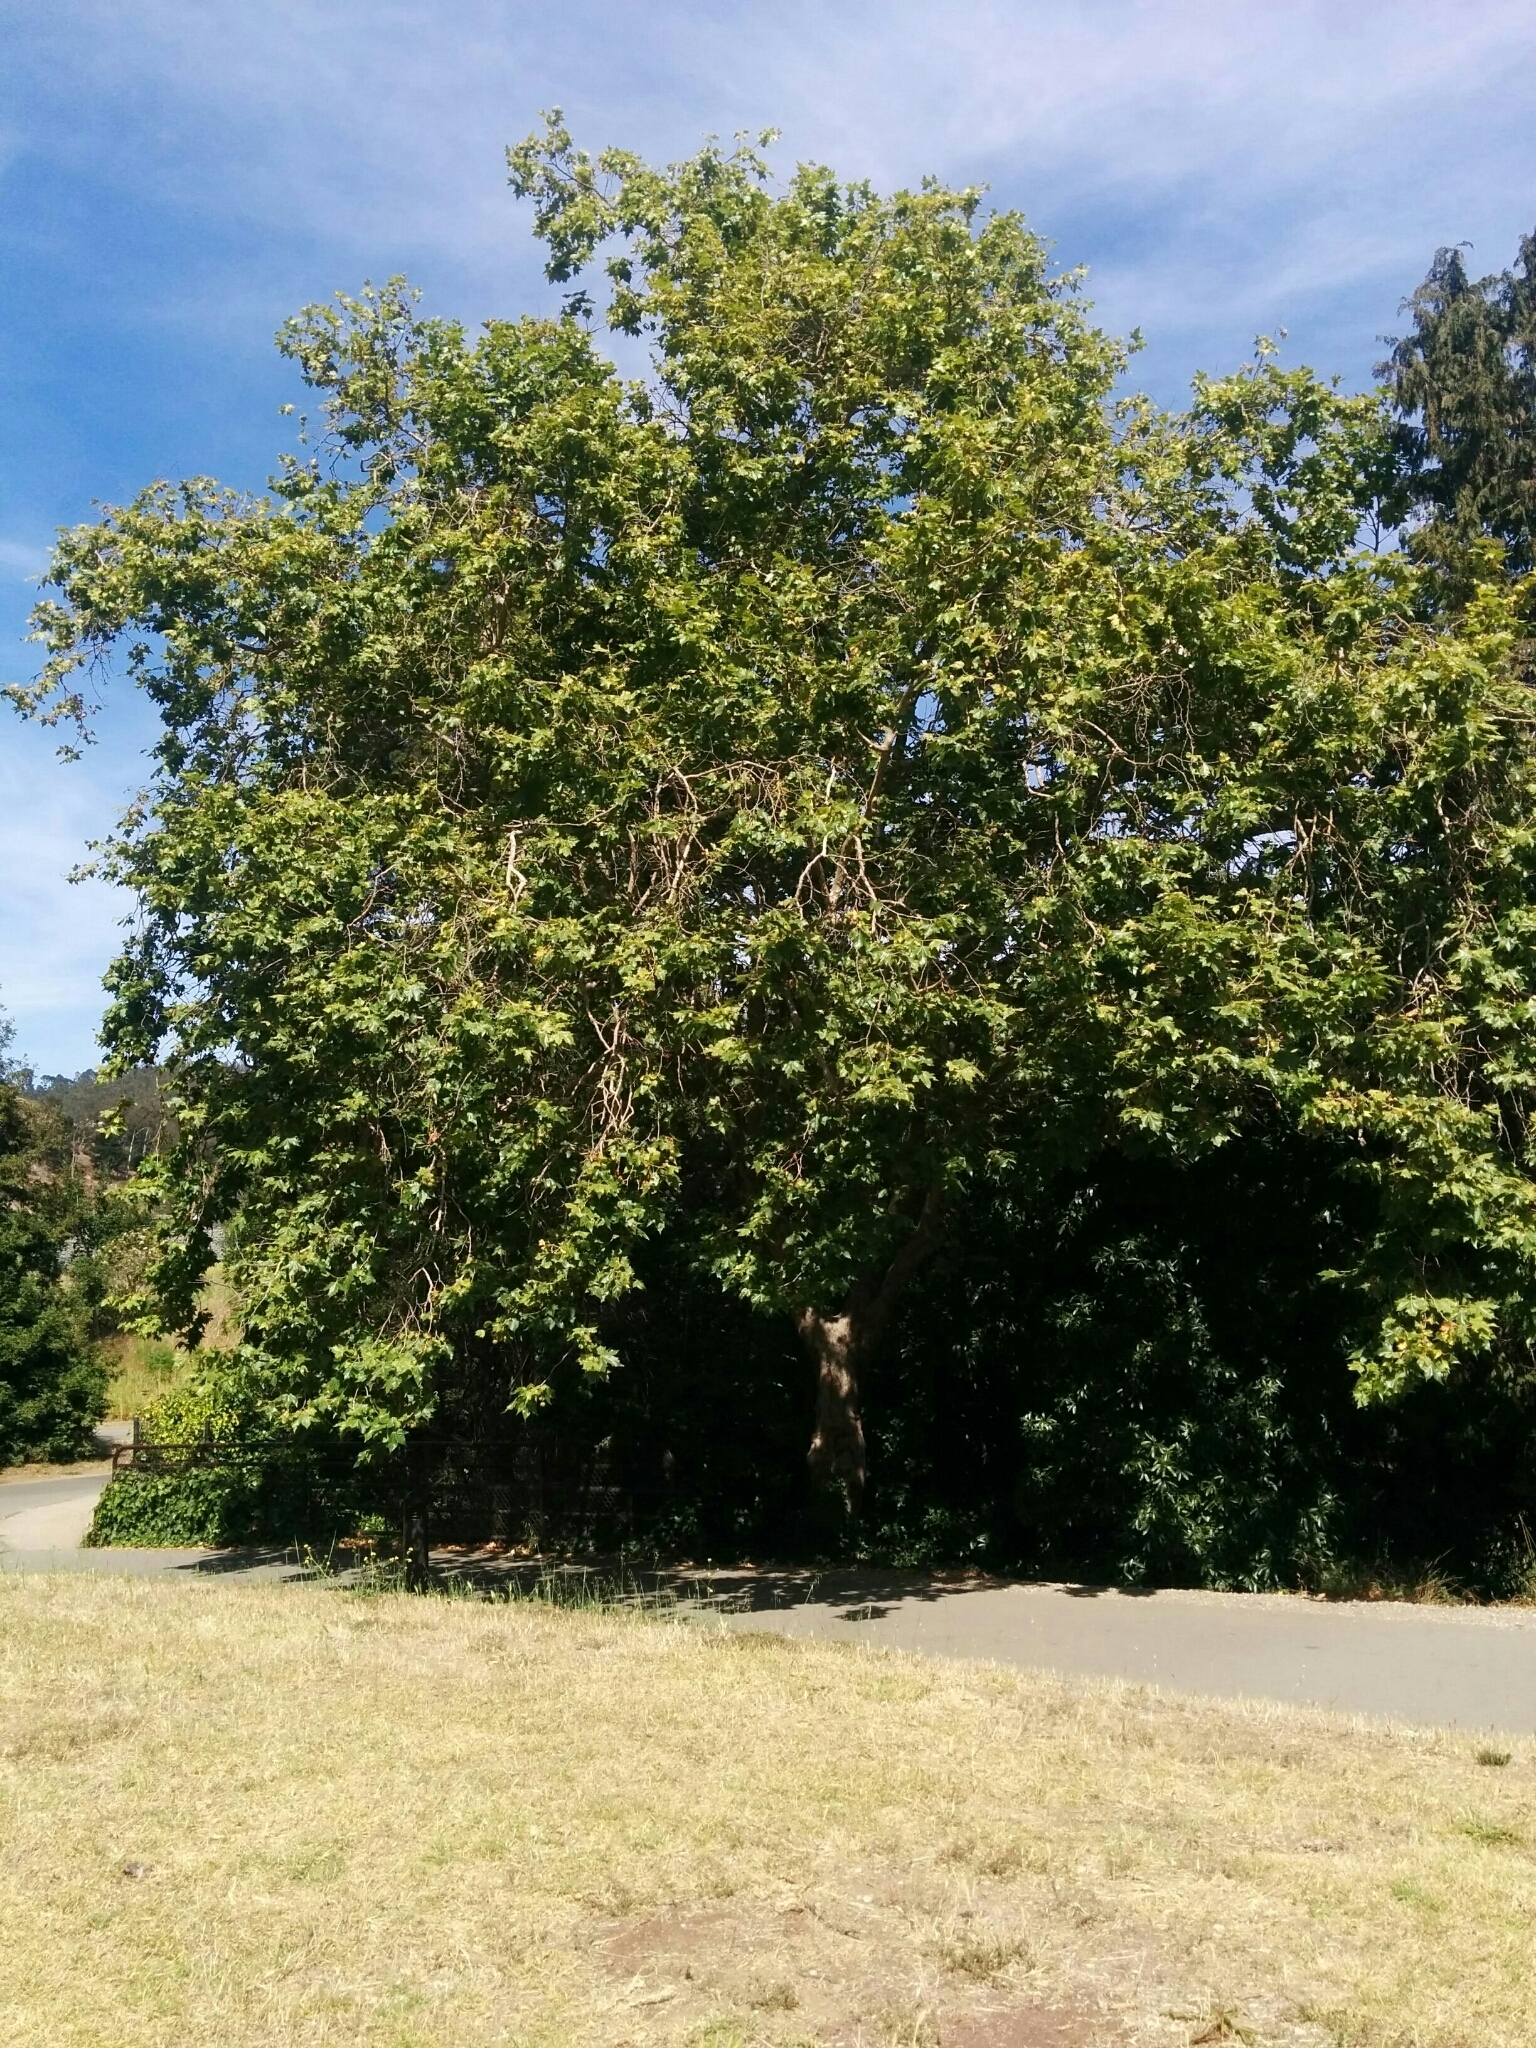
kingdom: Plantae
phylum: Tracheophyta
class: Magnoliopsida
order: Proteales
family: Platanaceae
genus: Platanus
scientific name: Platanus racemosa
